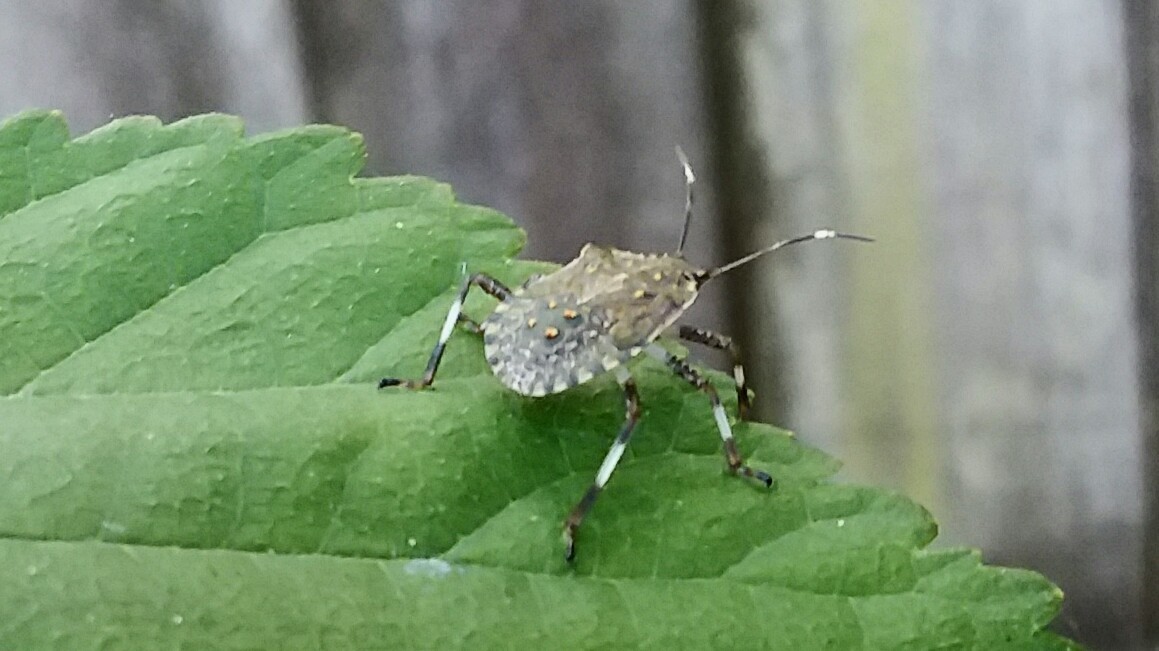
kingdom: Animalia
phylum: Arthropoda
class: Insecta
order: Hemiptera
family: Pentatomidae
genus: Halyomorpha
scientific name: Halyomorpha halys
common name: Brown marmorated stink bug
